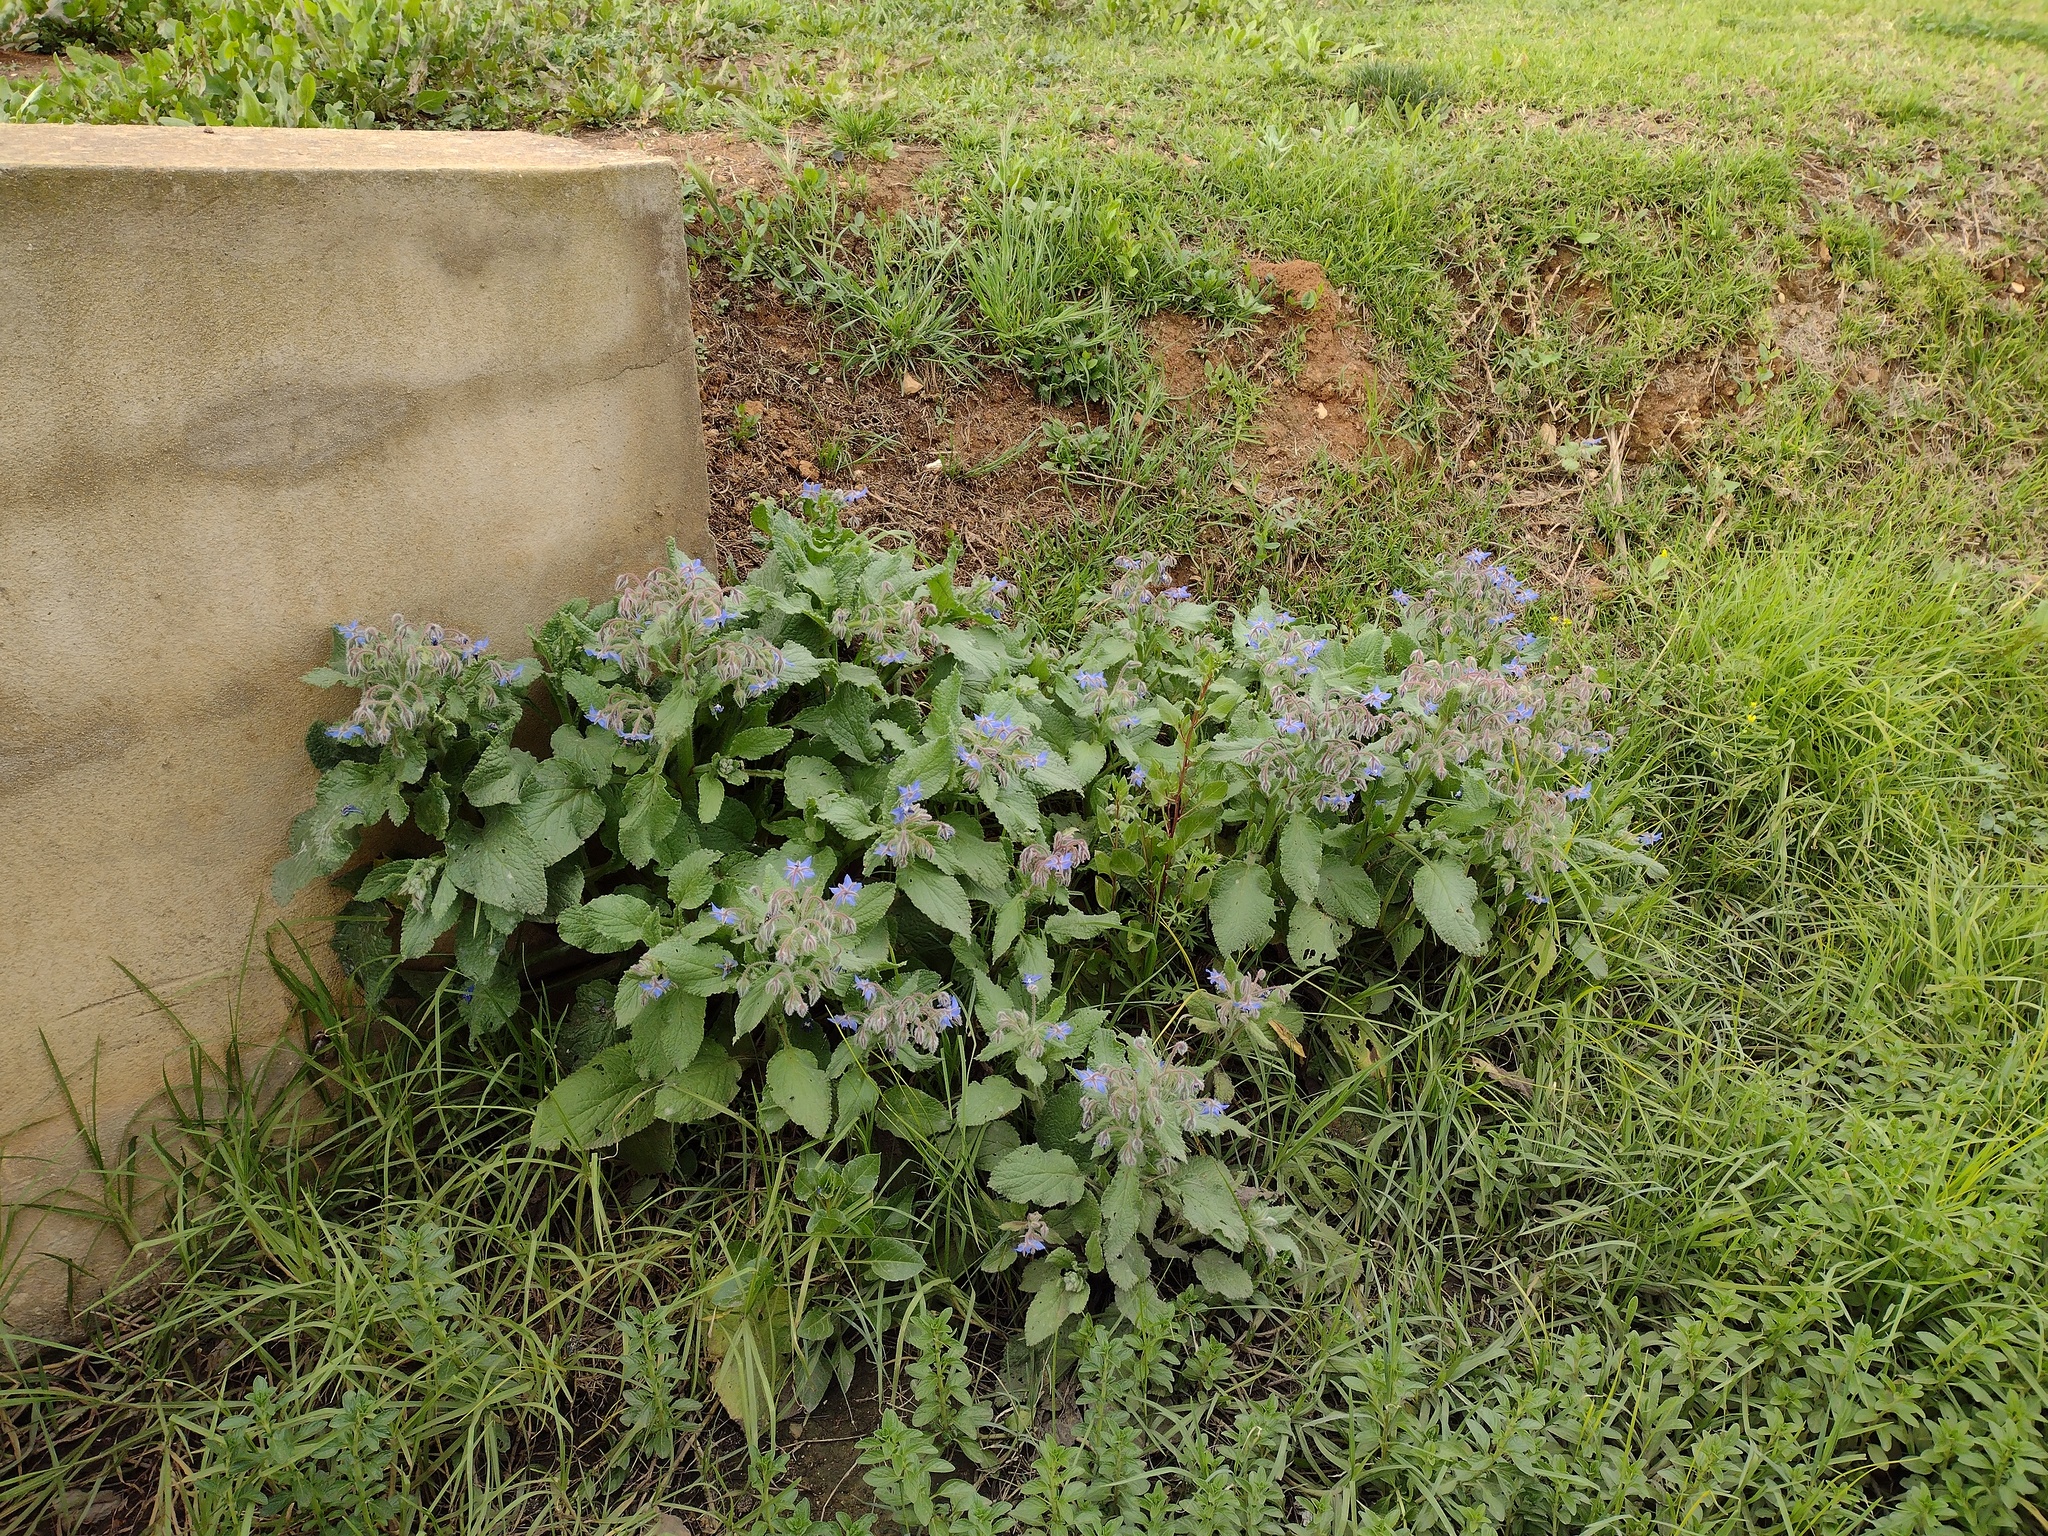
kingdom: Plantae
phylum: Tracheophyta
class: Magnoliopsida
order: Boraginales
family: Boraginaceae
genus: Borago
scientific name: Borago officinalis
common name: Borage
